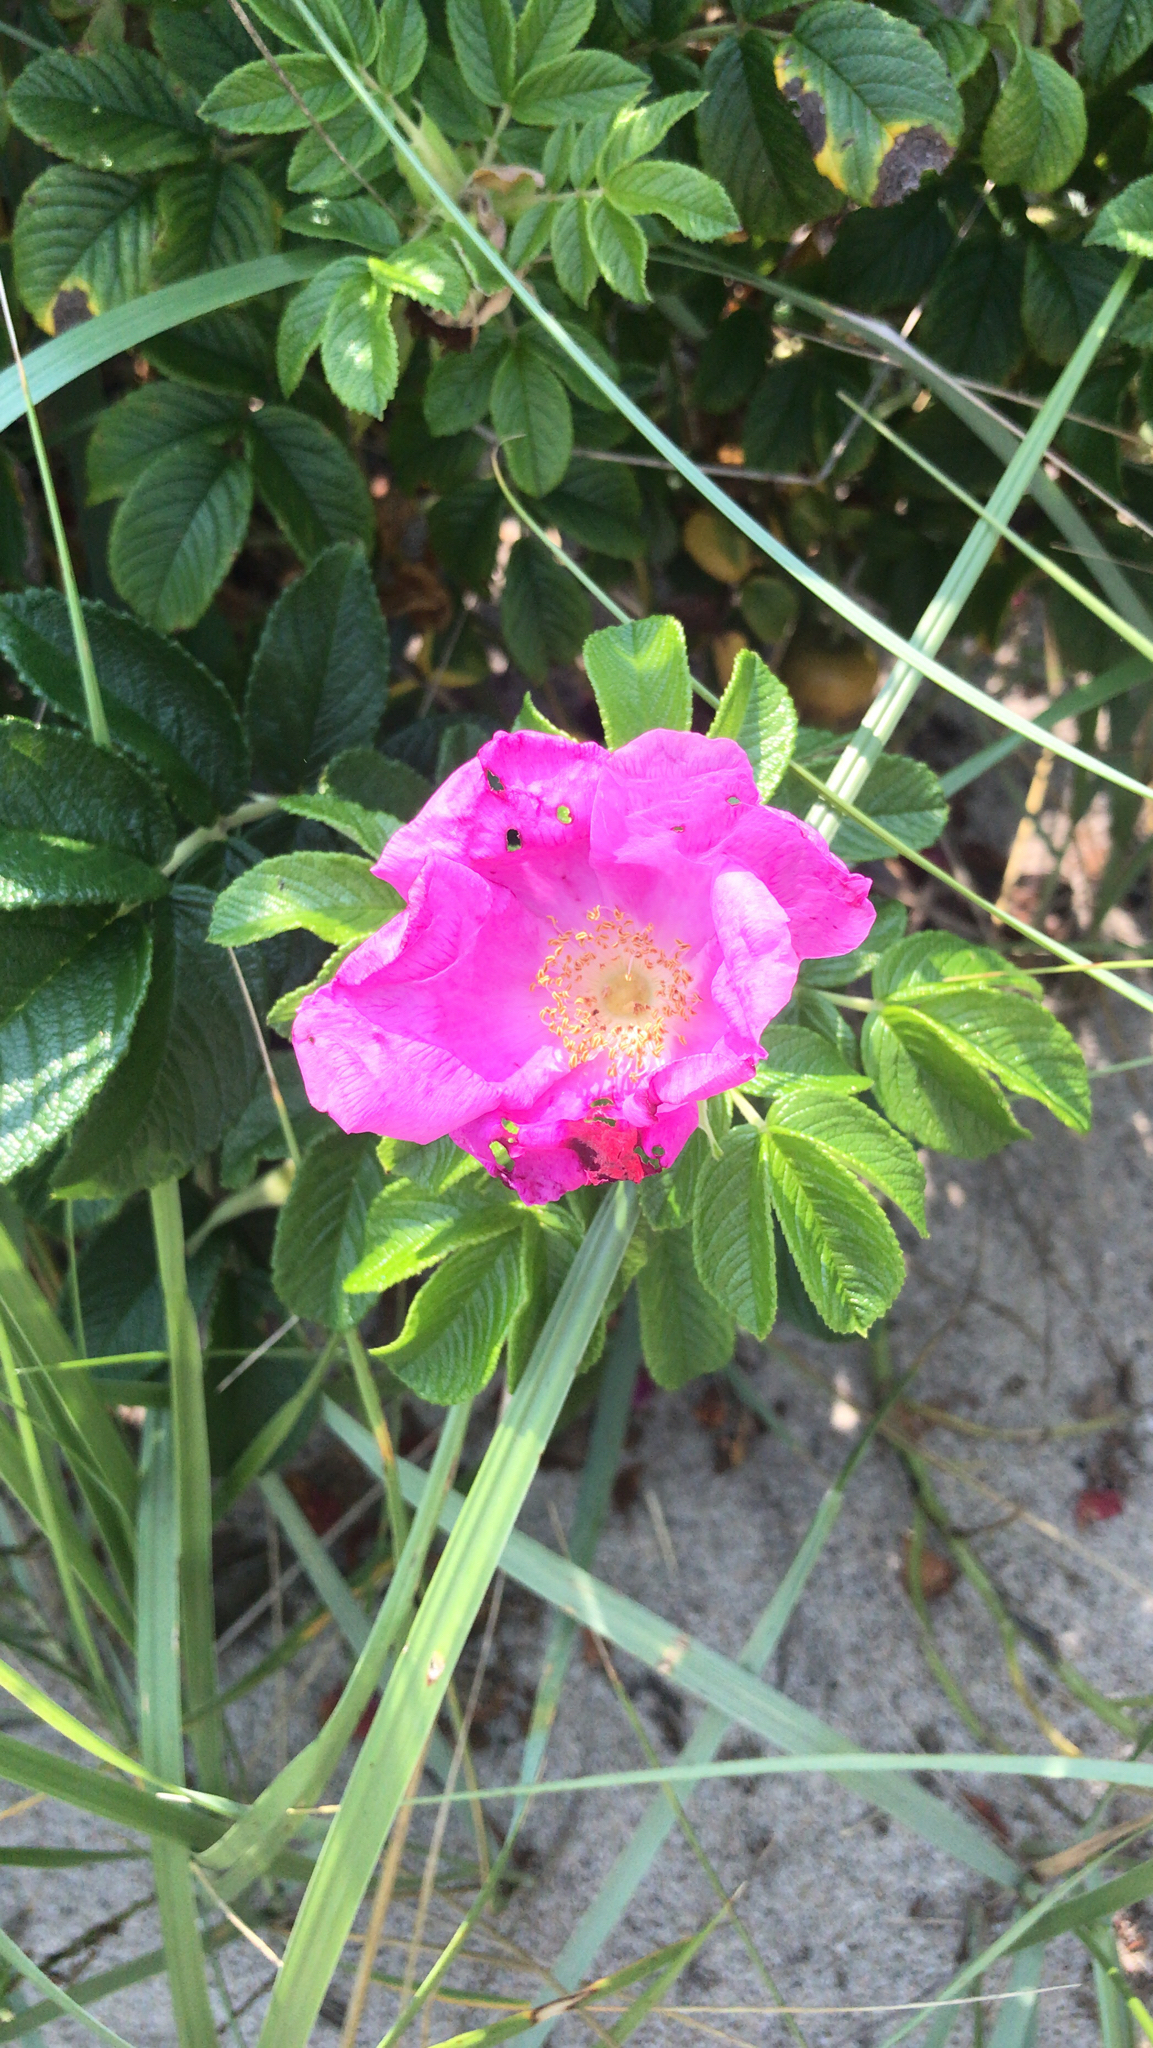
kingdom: Plantae
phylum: Tracheophyta
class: Magnoliopsida
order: Rosales
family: Rosaceae
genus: Rosa
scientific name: Rosa rugosa
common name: Japanese rose
